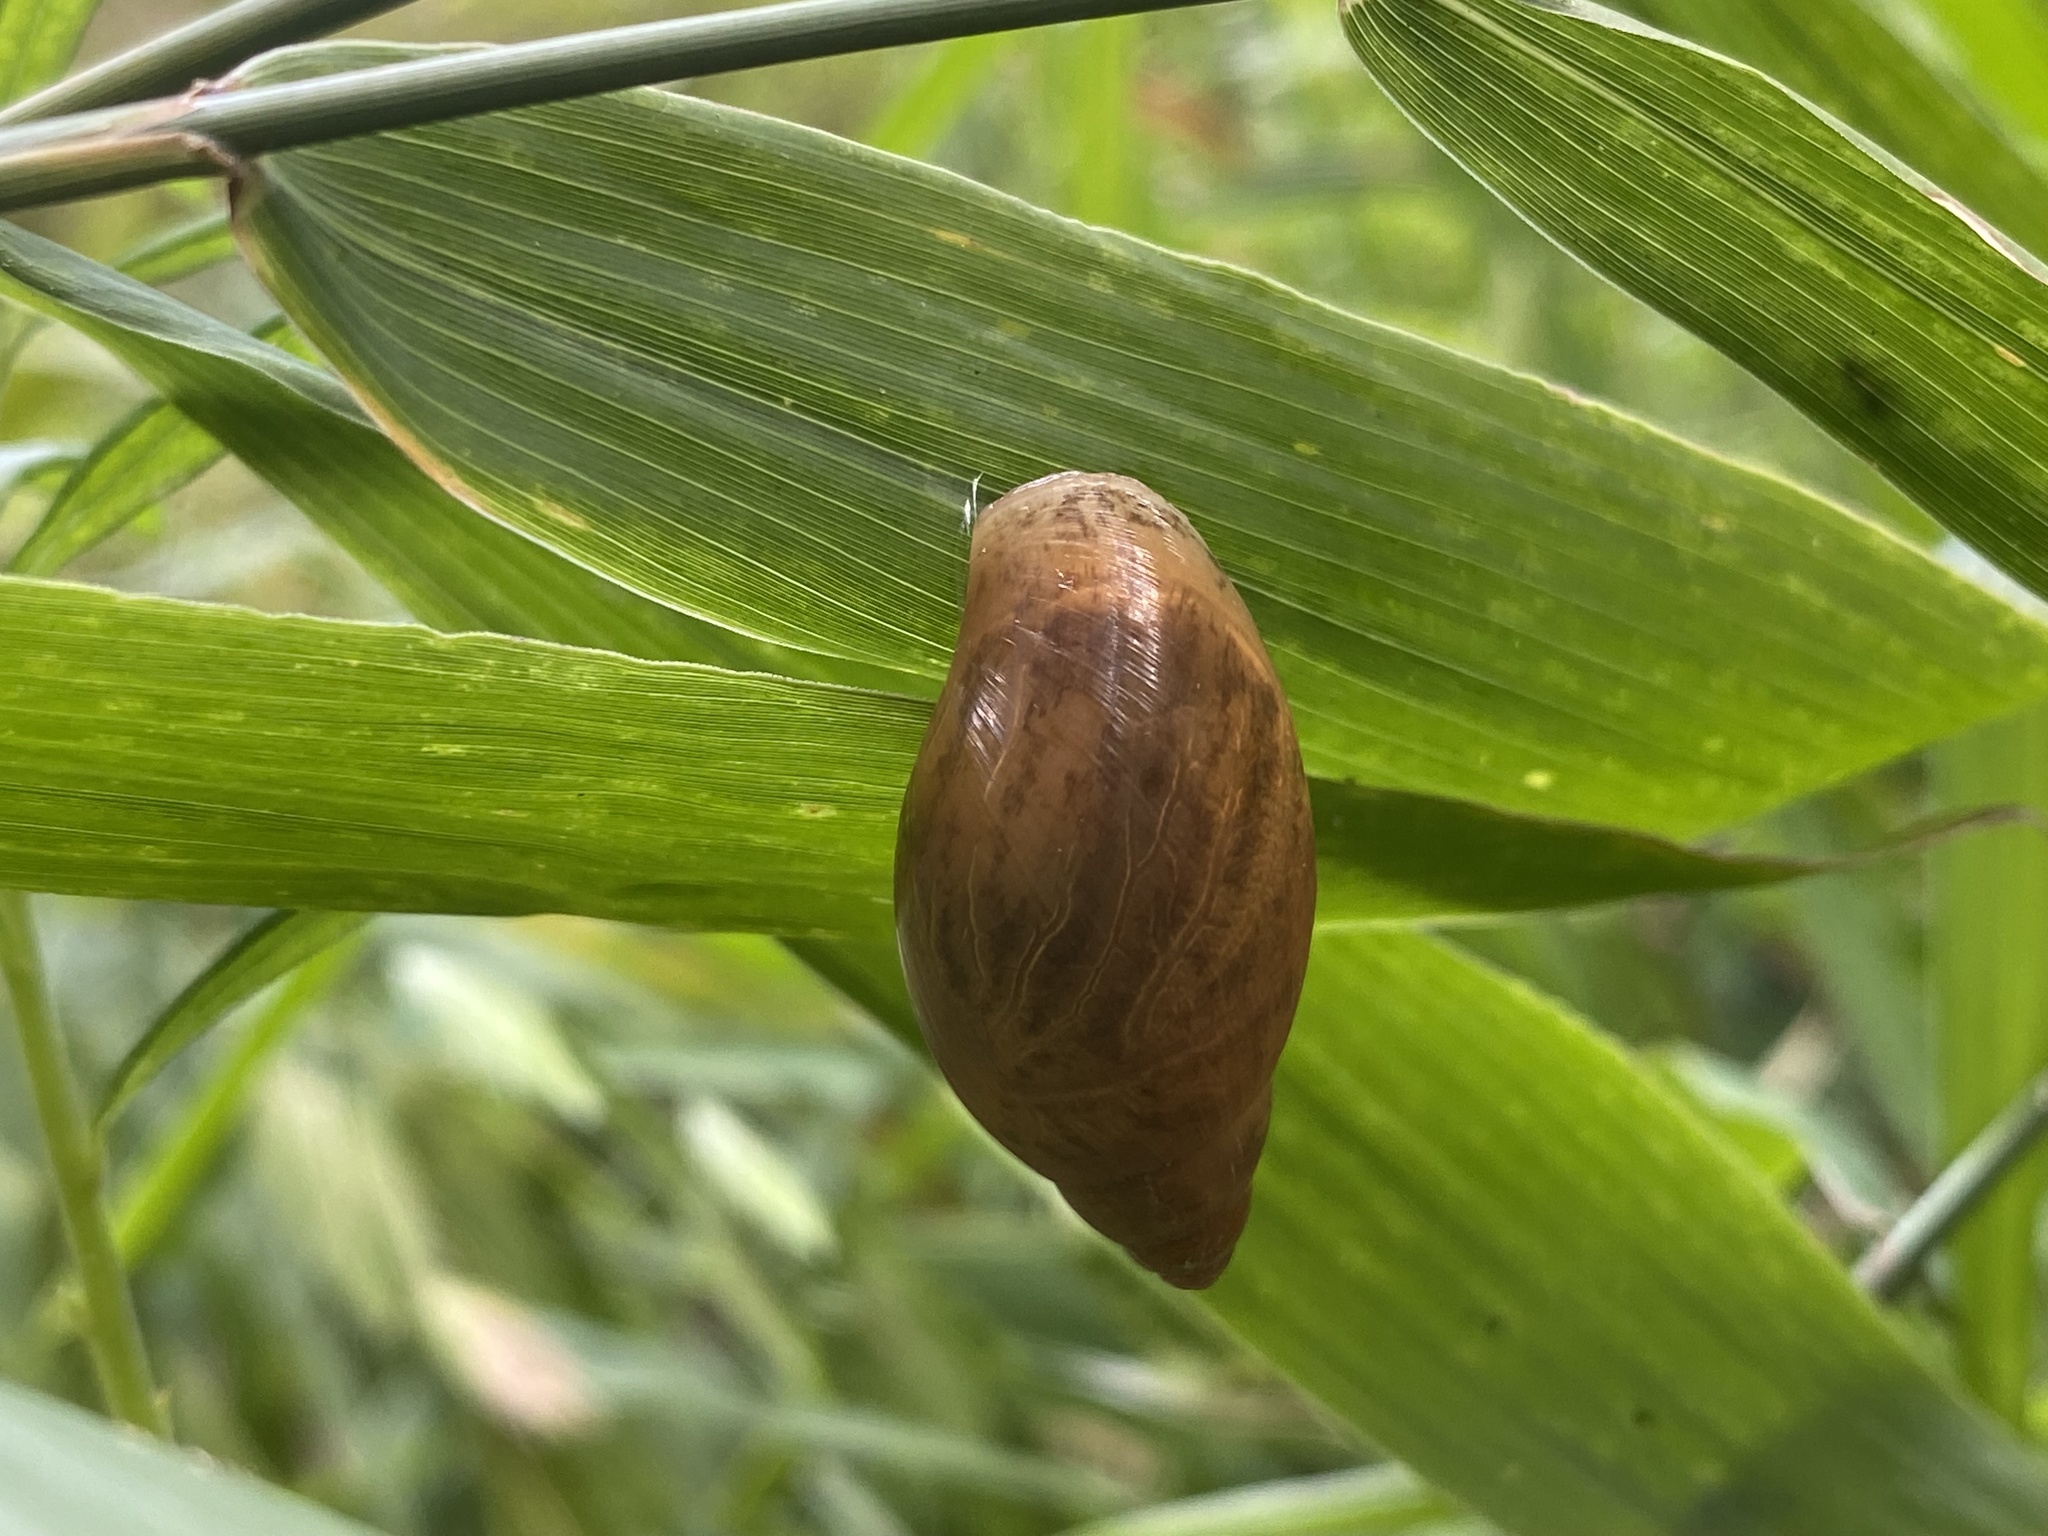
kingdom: Animalia
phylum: Mollusca
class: Gastropoda
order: Stylommatophora
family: Spiraxidae
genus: Euglandina
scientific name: Euglandina rosea
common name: Rosy wolfsnail
